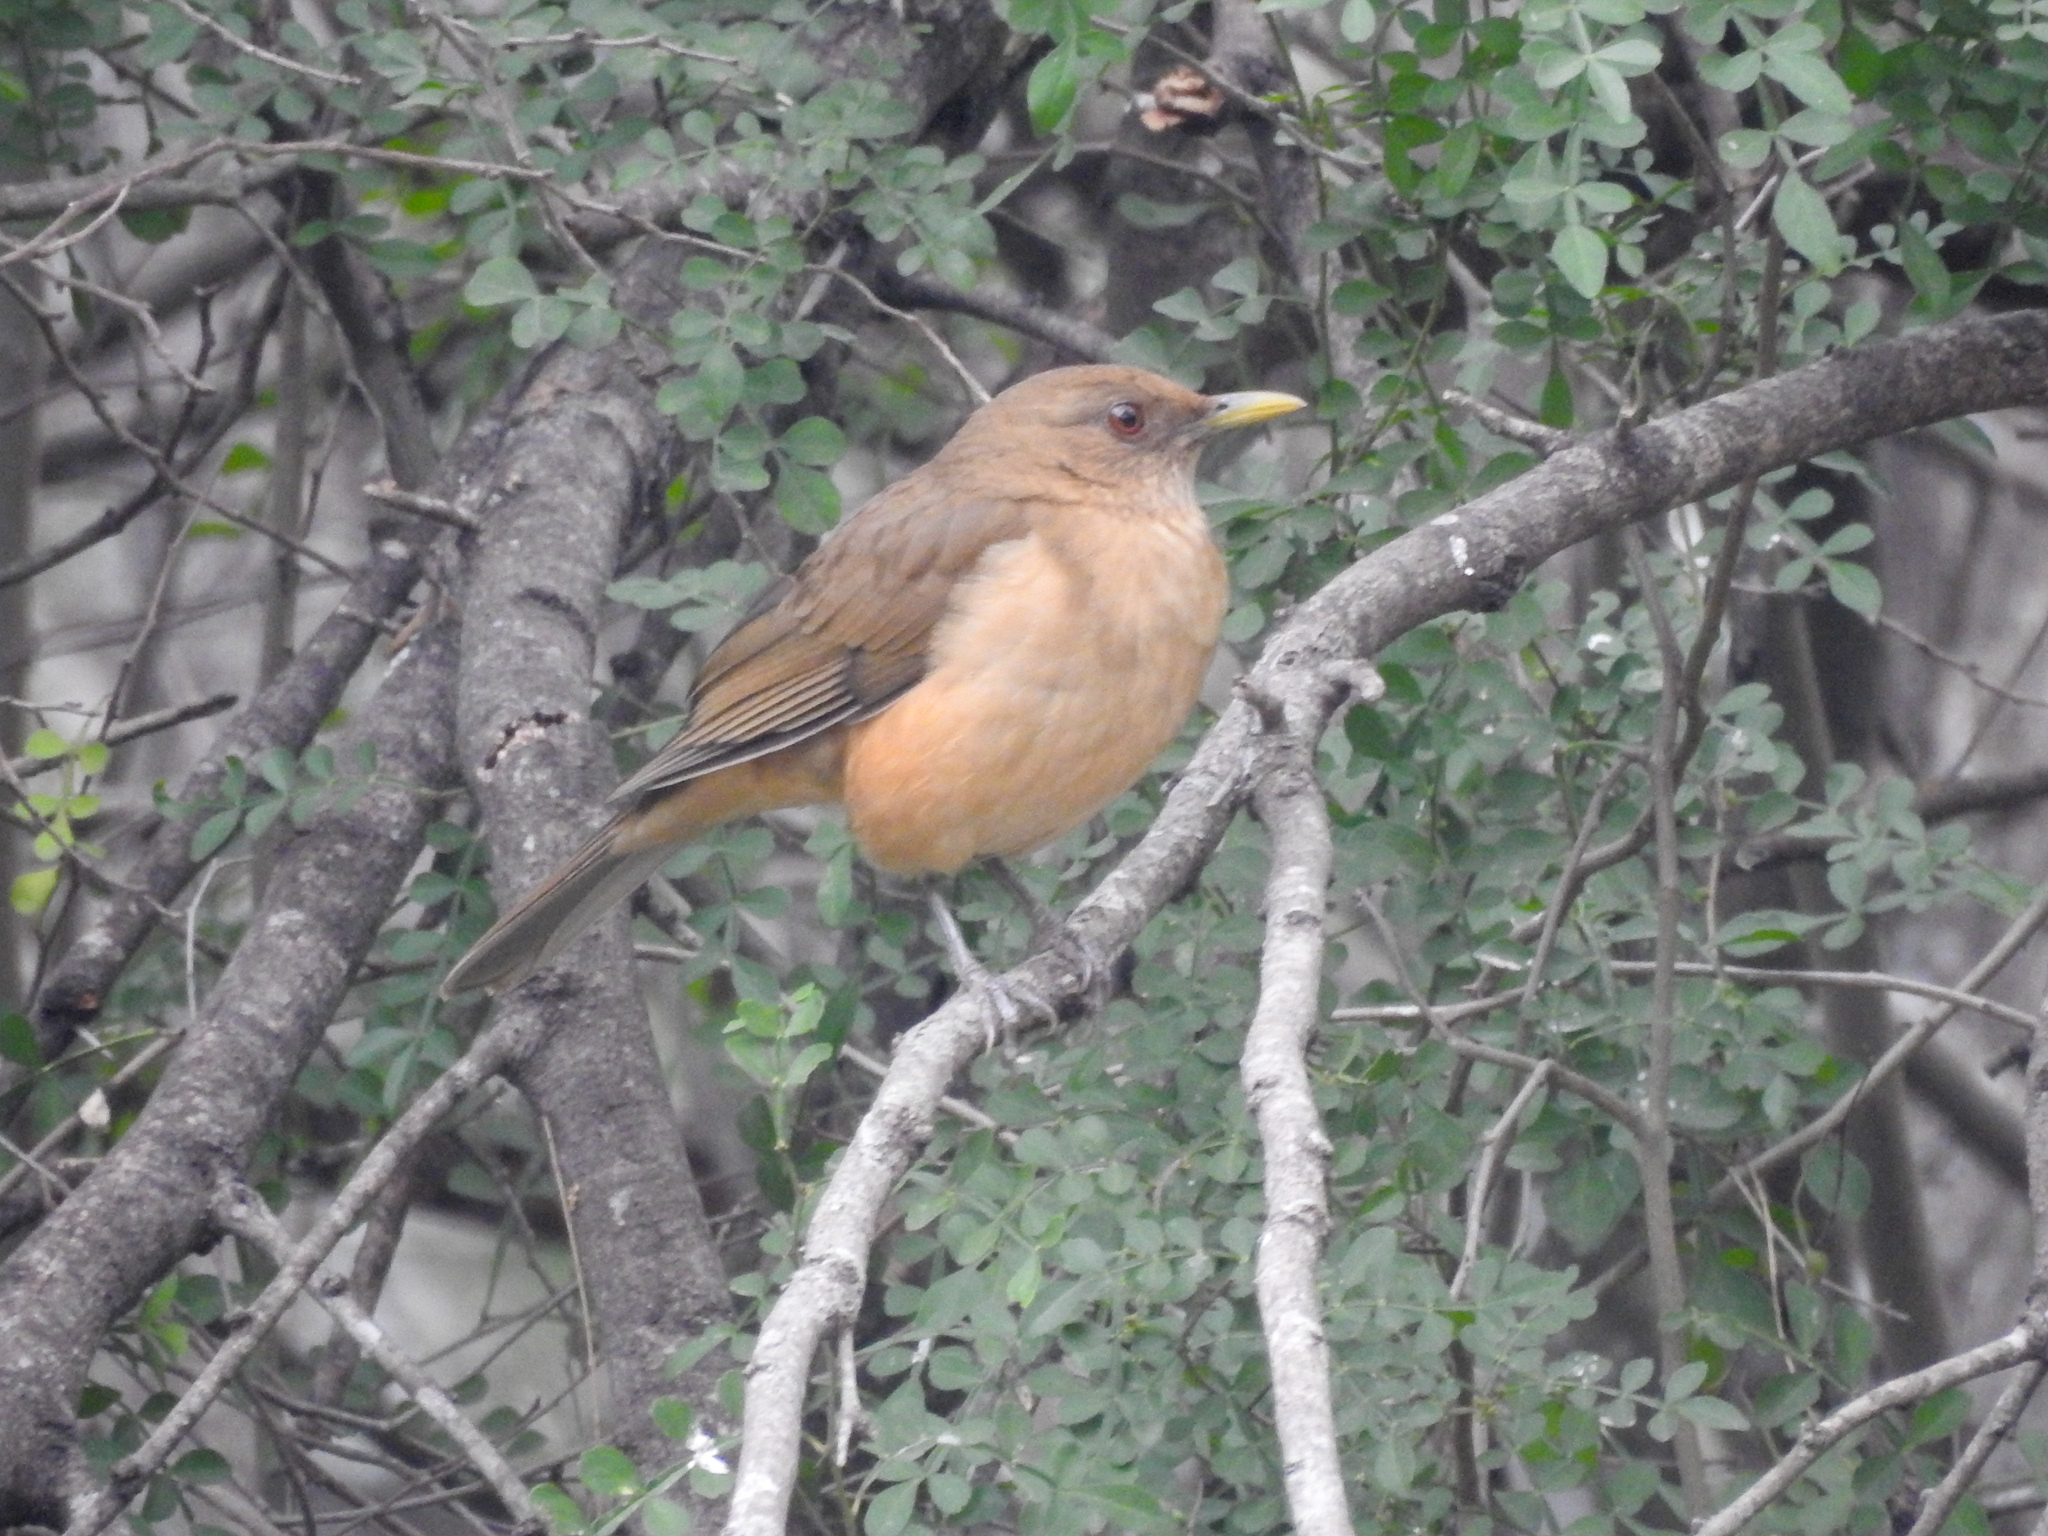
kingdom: Animalia
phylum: Chordata
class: Aves
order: Passeriformes
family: Turdidae
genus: Turdus
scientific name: Turdus grayi
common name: Clay-colored thrush
